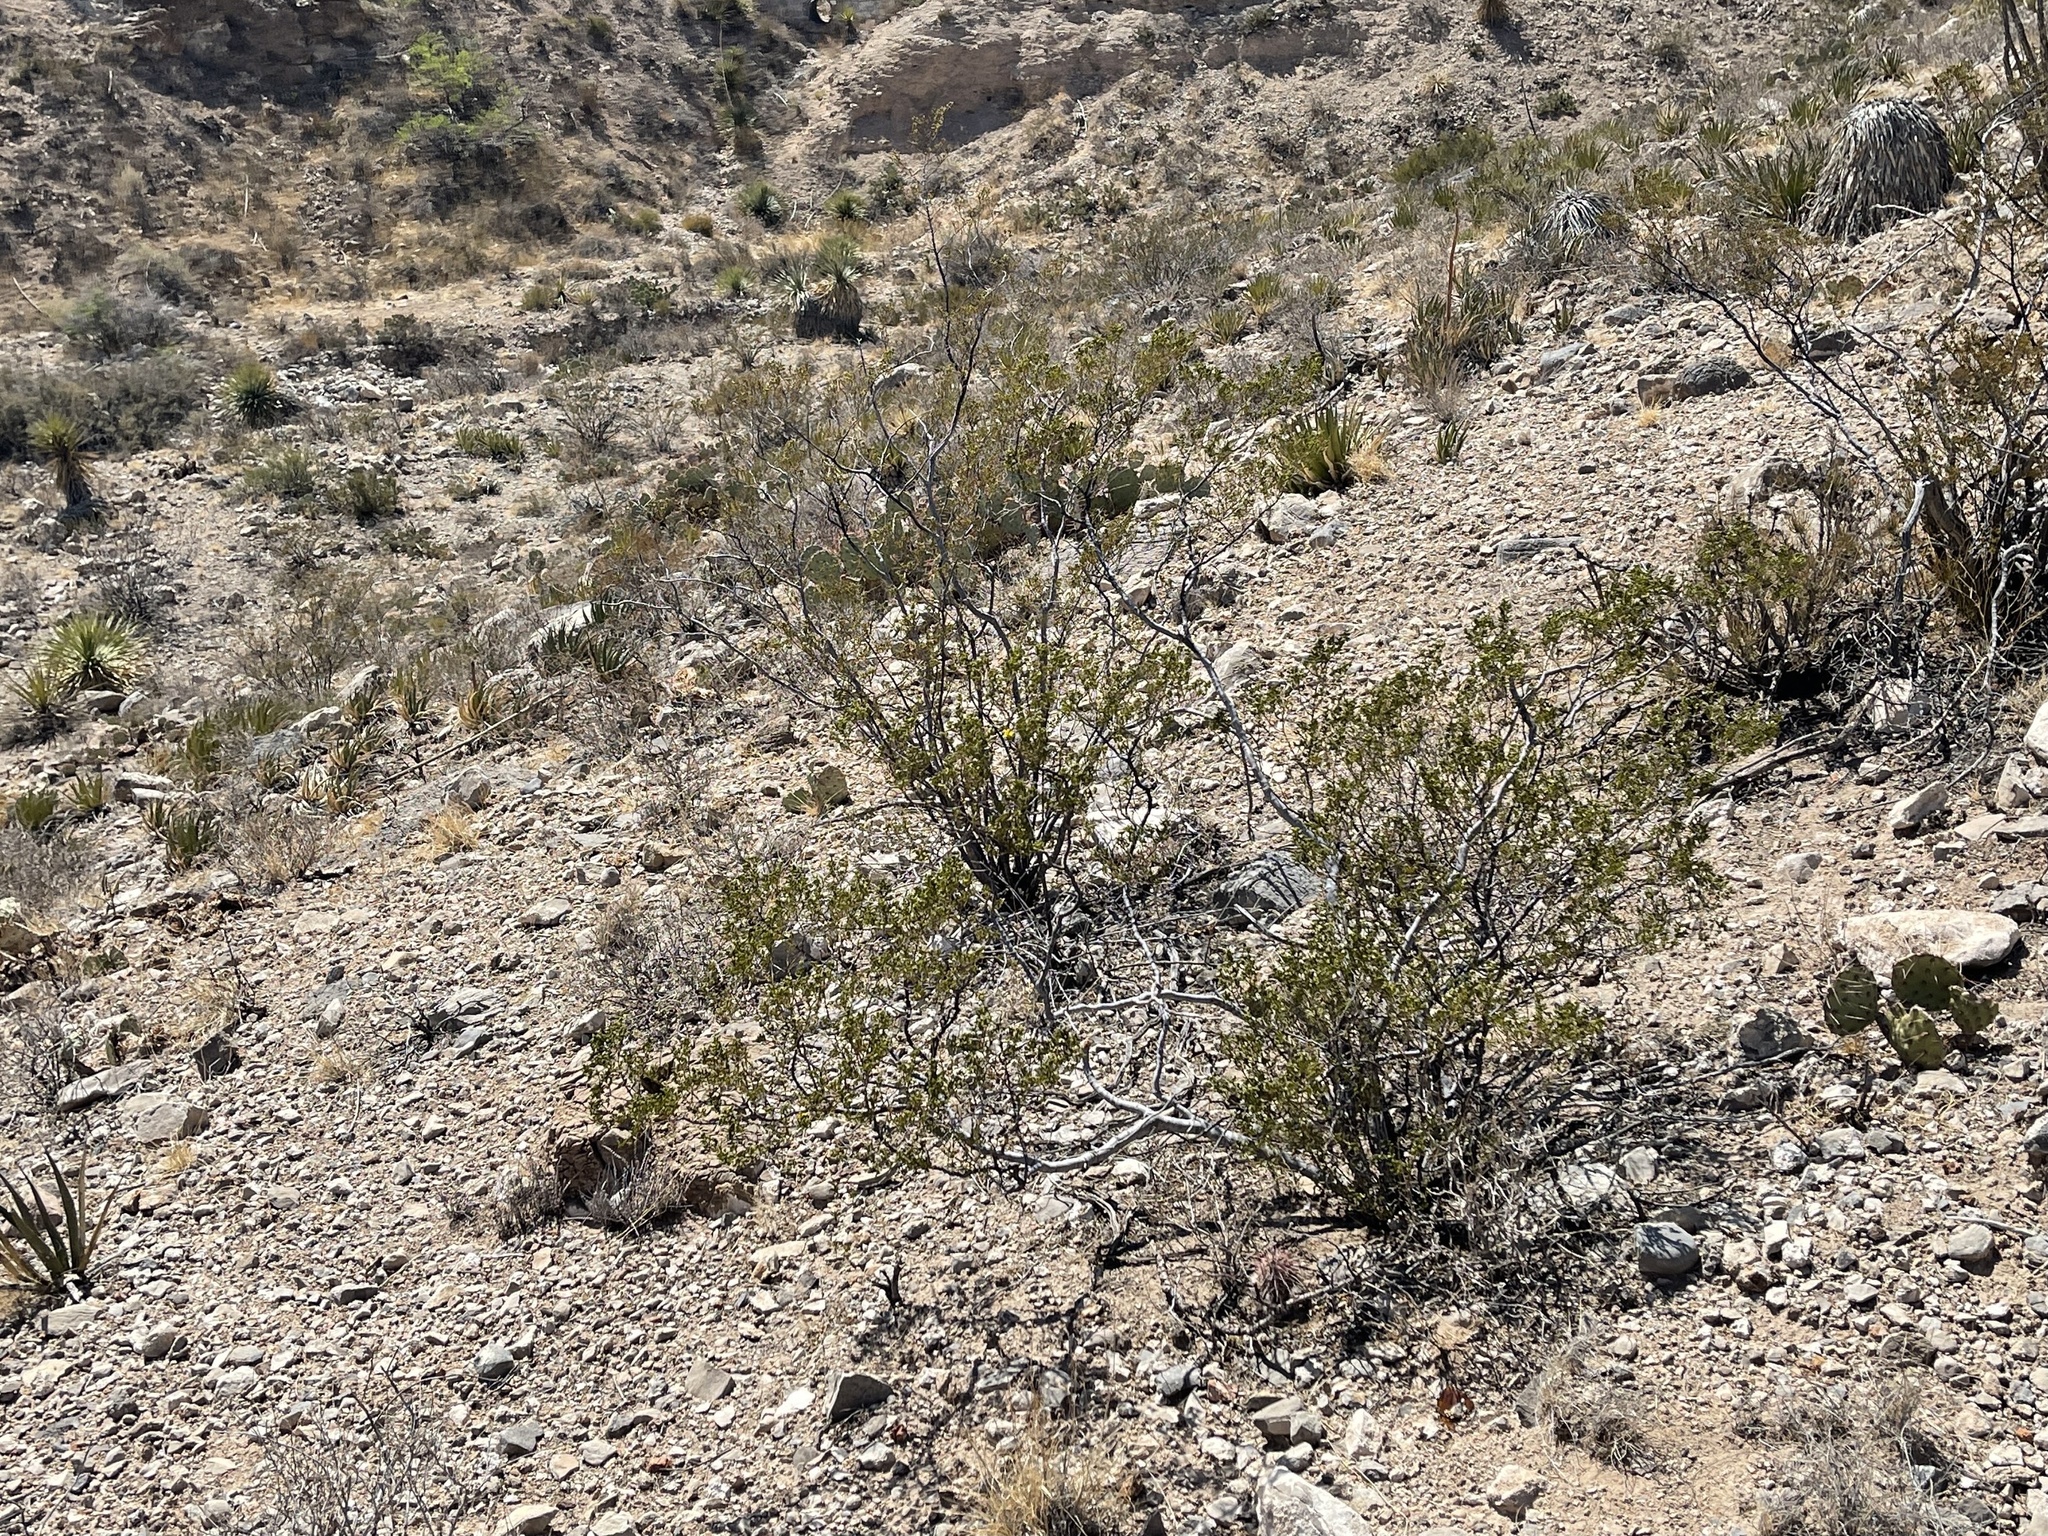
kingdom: Plantae
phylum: Tracheophyta
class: Magnoliopsida
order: Zygophyllales
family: Zygophyllaceae
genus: Larrea
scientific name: Larrea tridentata
